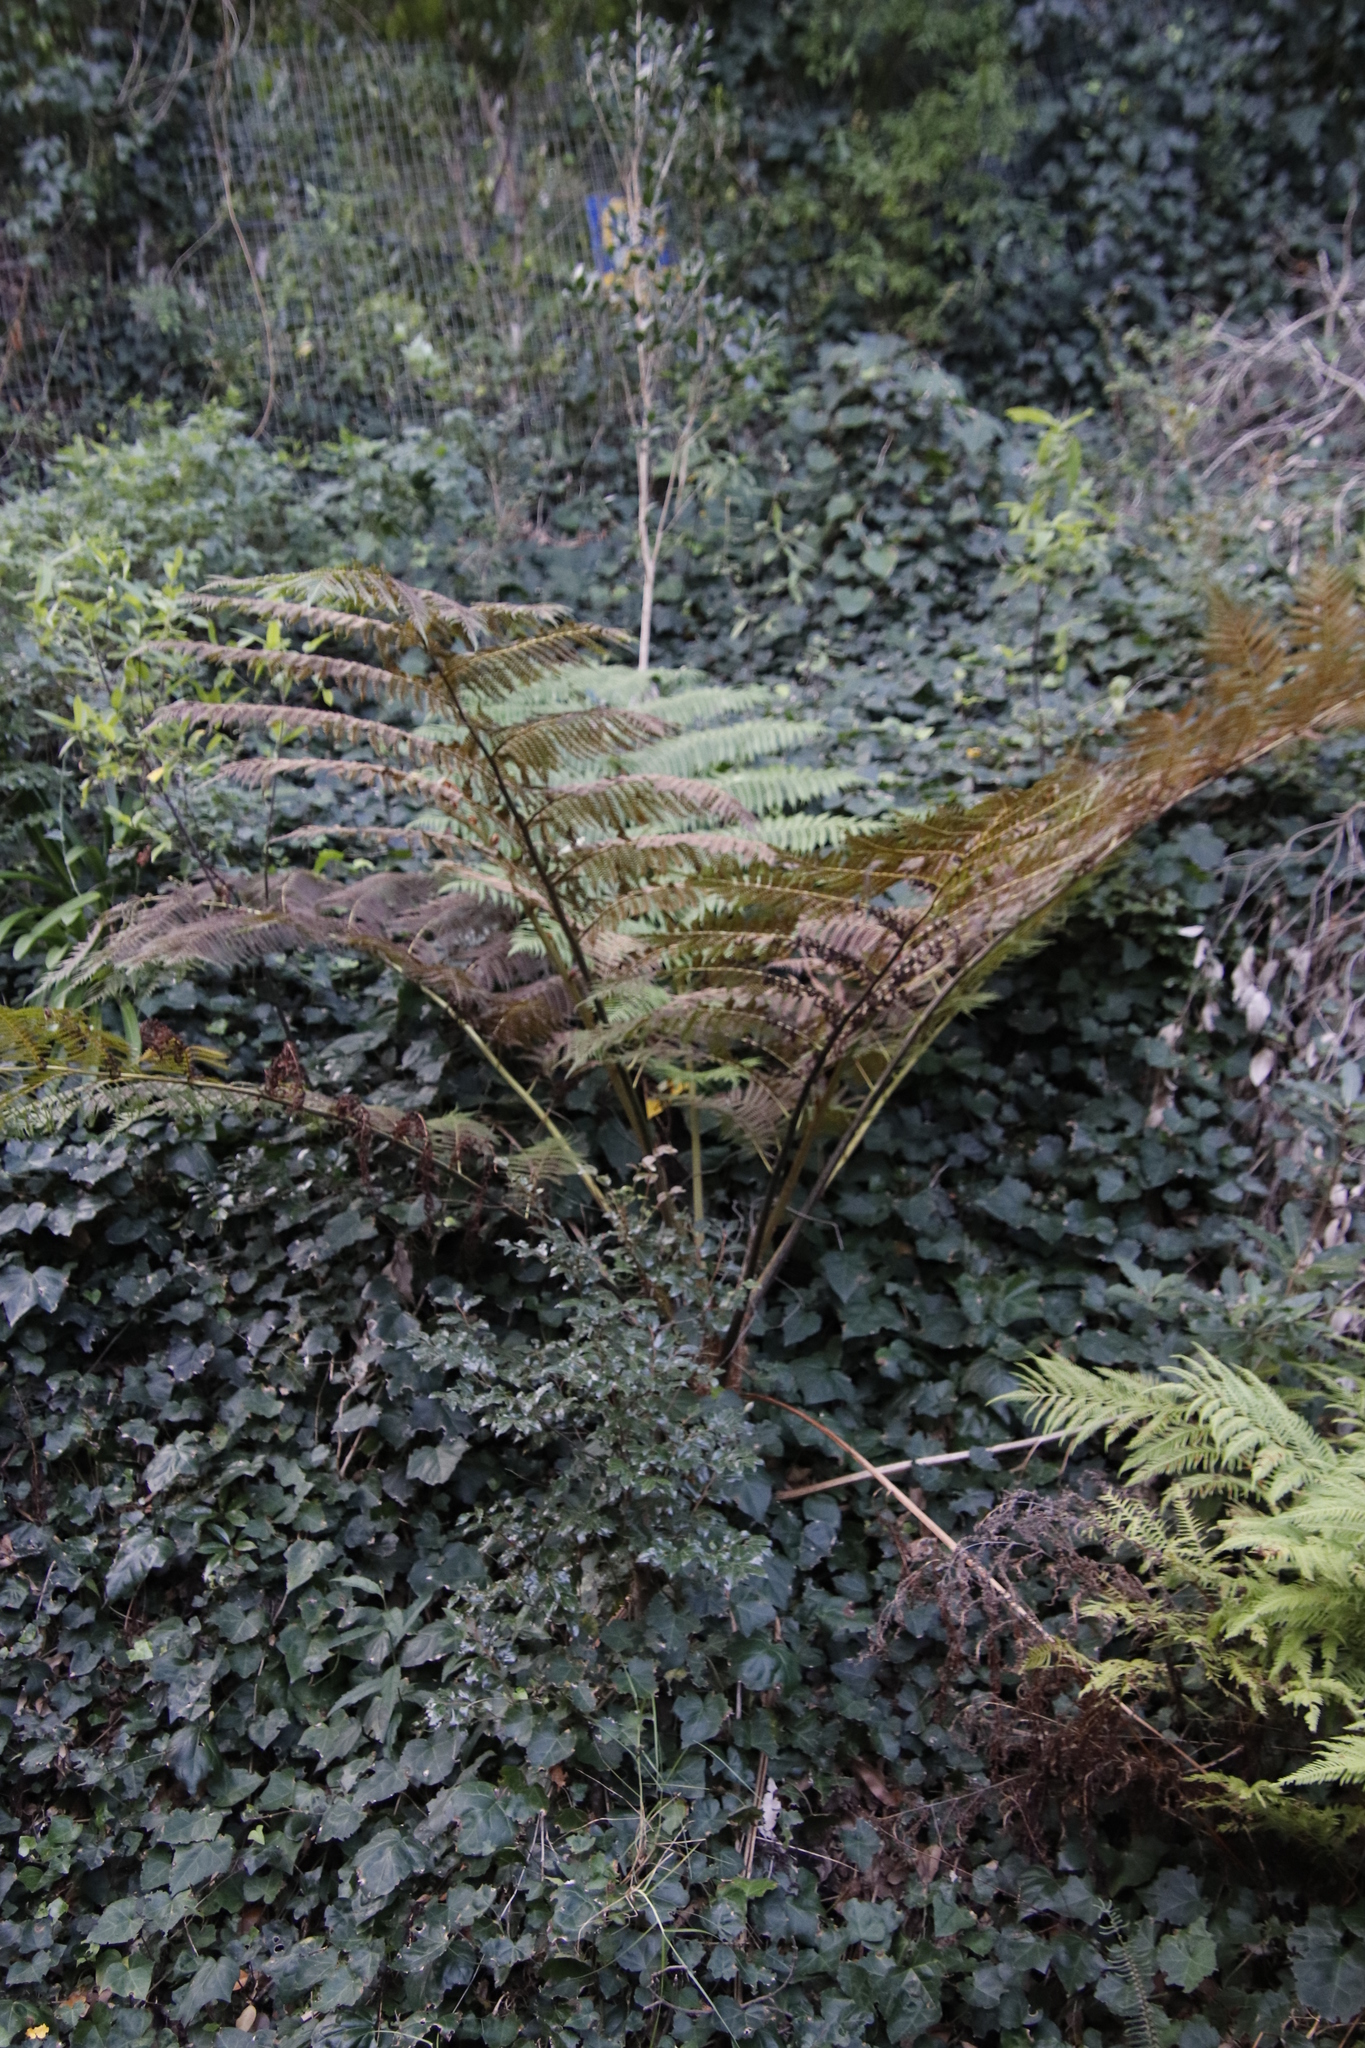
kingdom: Plantae
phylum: Tracheophyta
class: Polypodiopsida
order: Cyatheales
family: Cyatheaceae
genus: Sphaeropteris
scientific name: Sphaeropteris cooperi
